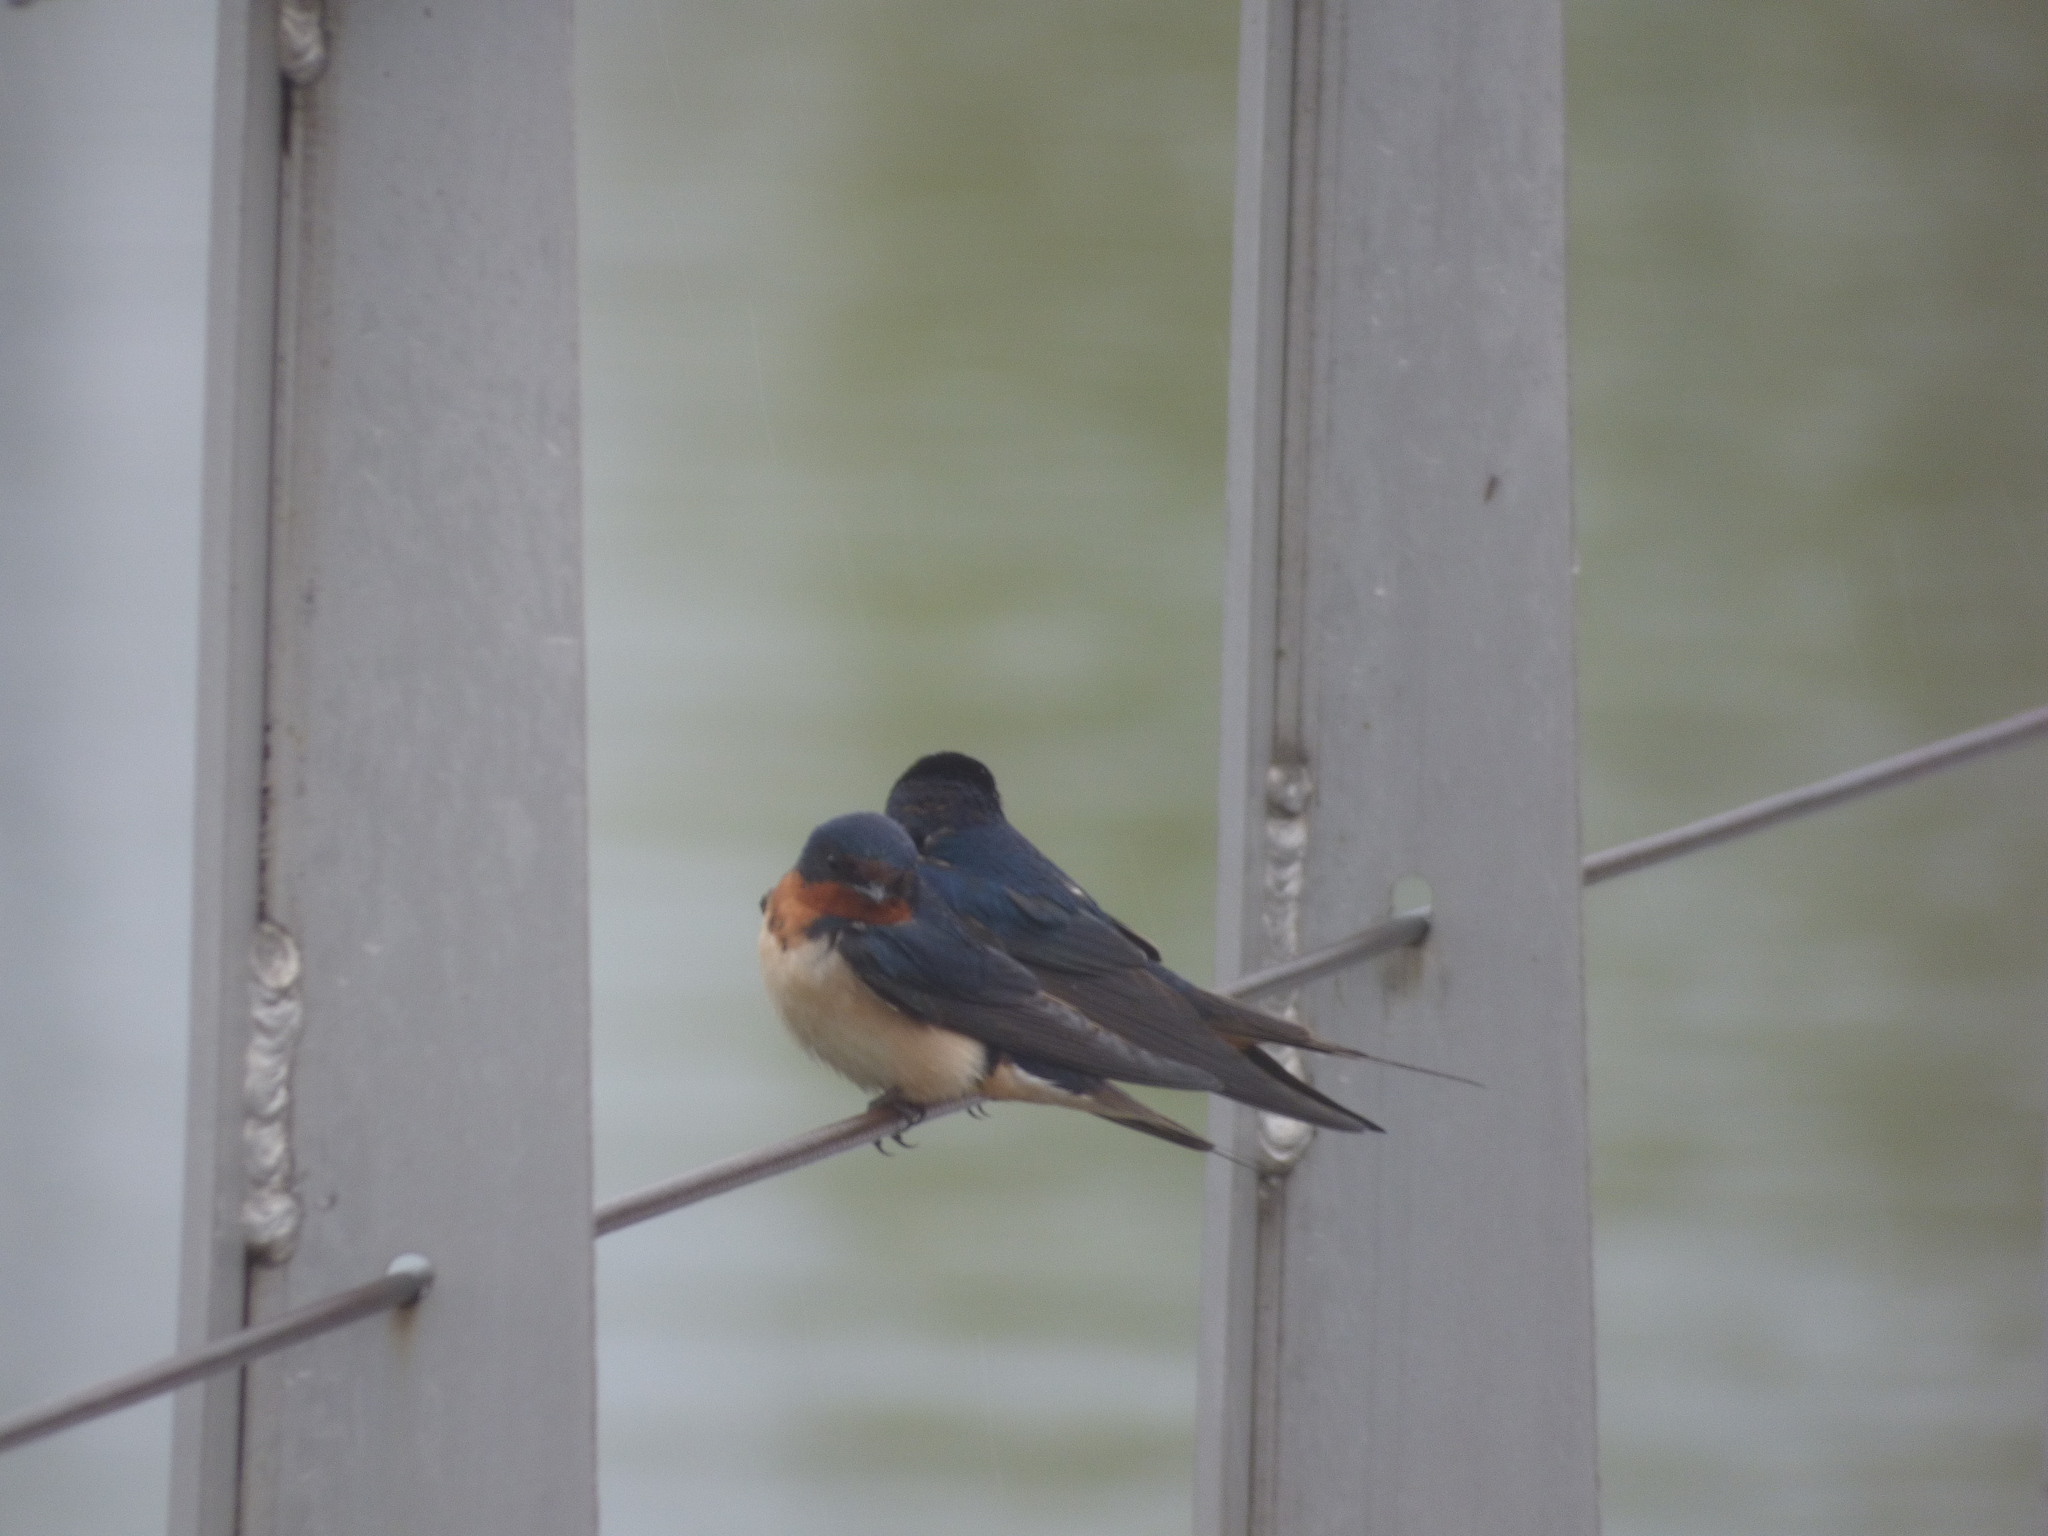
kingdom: Animalia
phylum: Chordata
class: Aves
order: Passeriformes
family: Hirundinidae
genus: Hirundo
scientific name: Hirundo rustica
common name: Barn swallow
